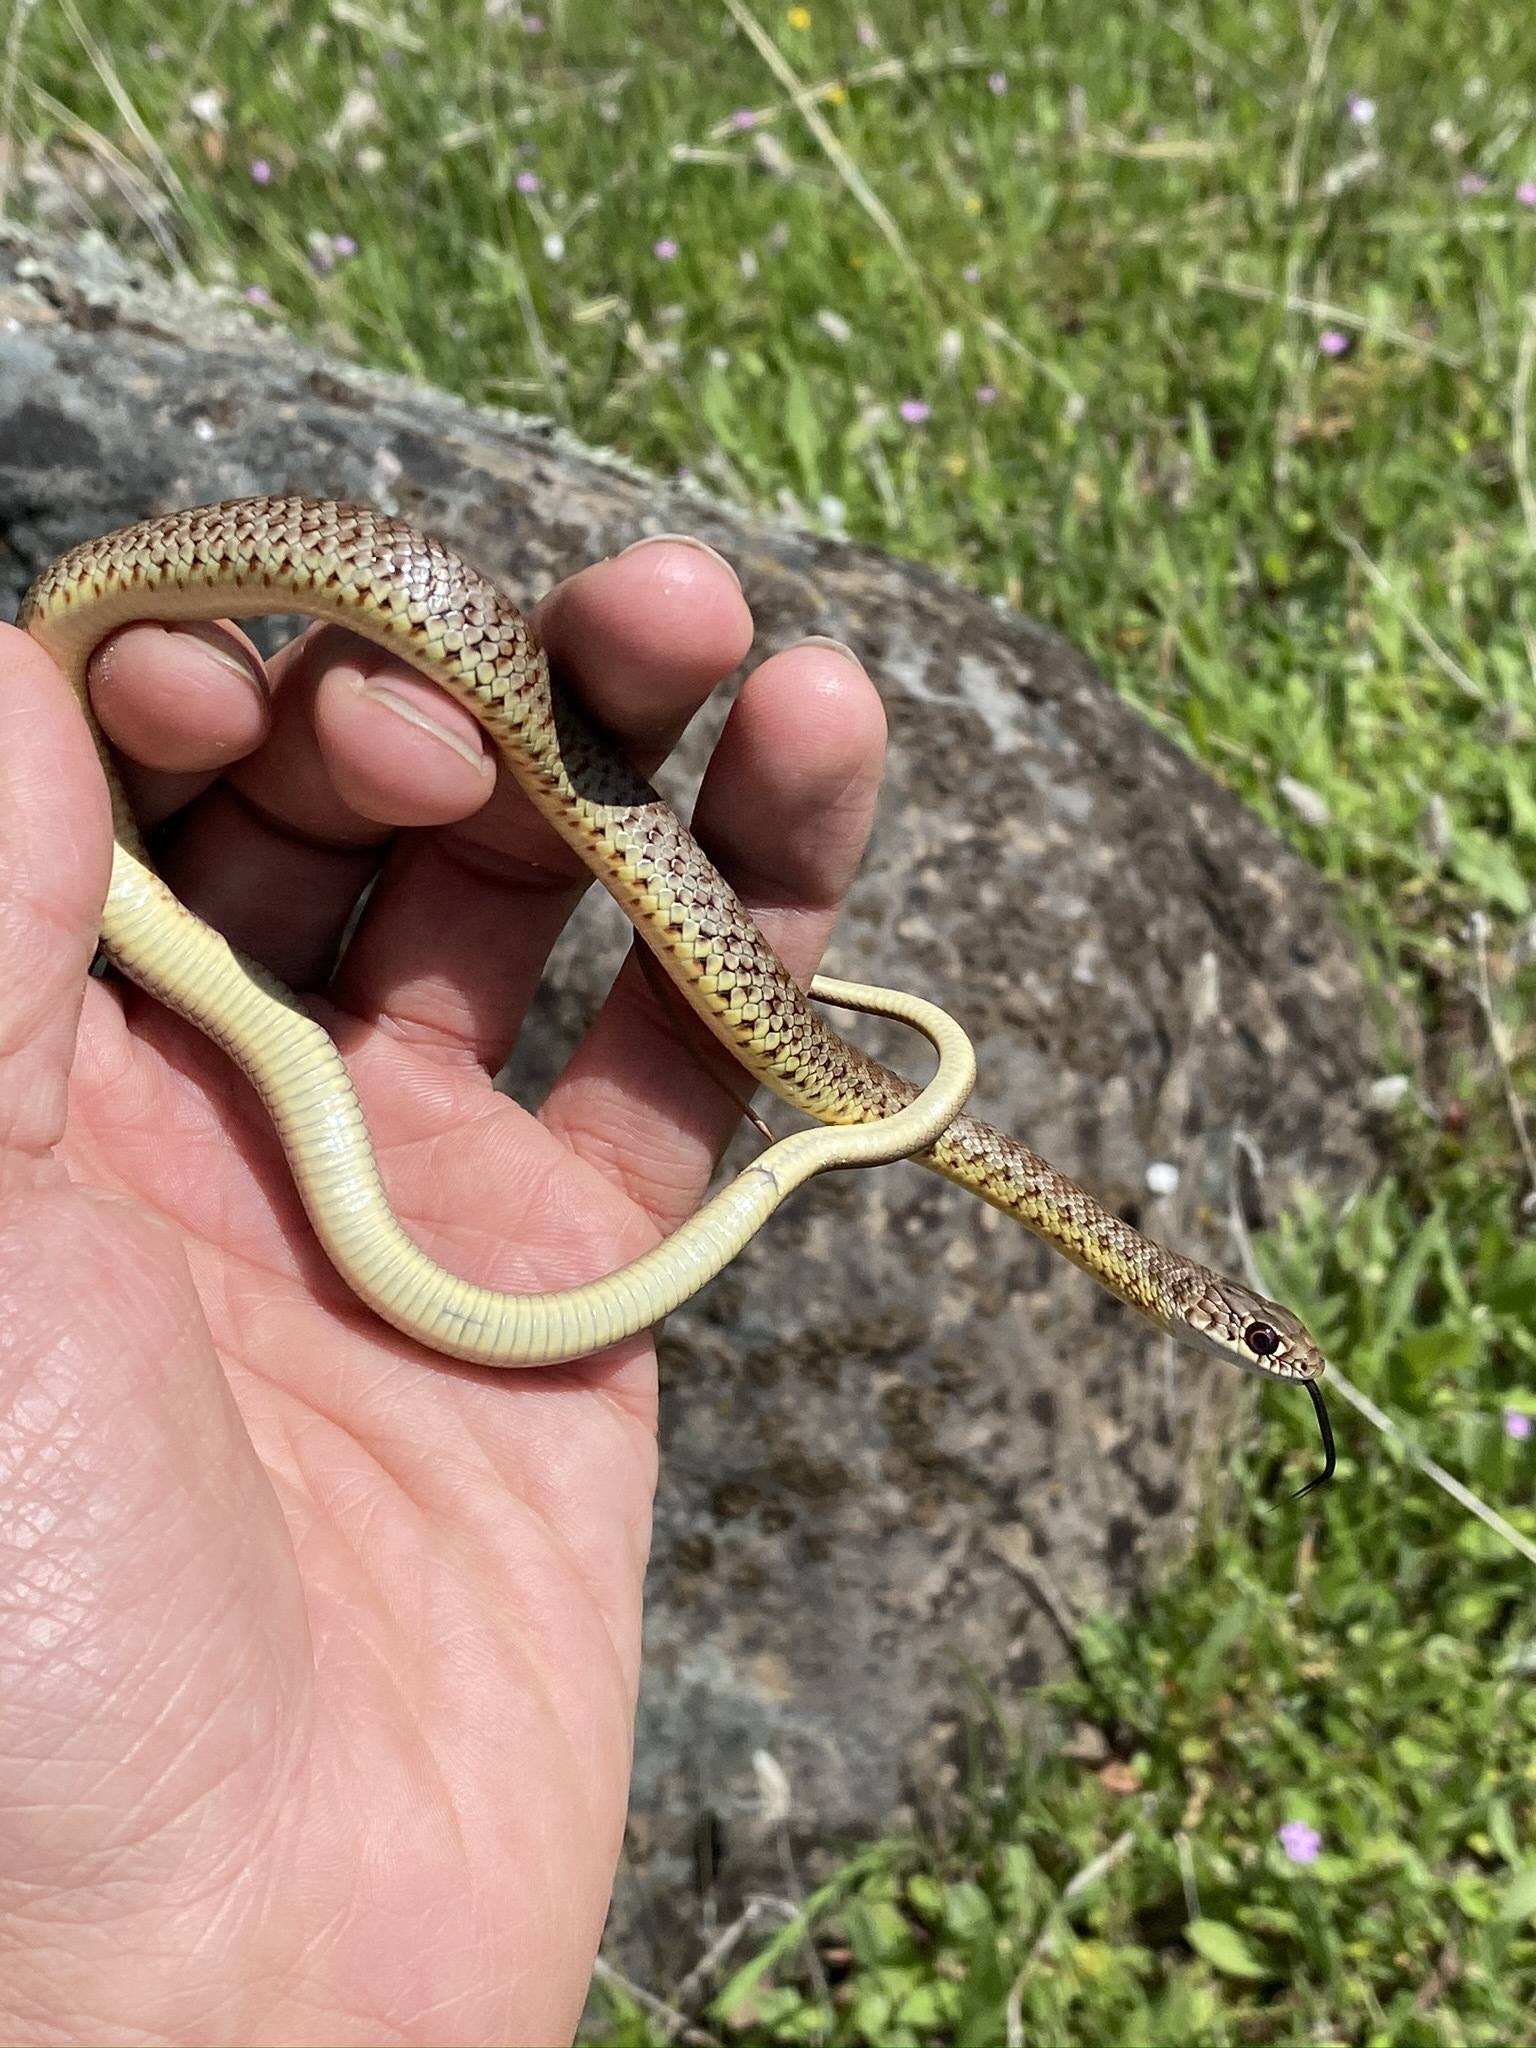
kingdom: Animalia
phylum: Chordata
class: Squamata
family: Colubridae
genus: Coluber
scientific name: Coluber constrictor
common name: Eastern racer
